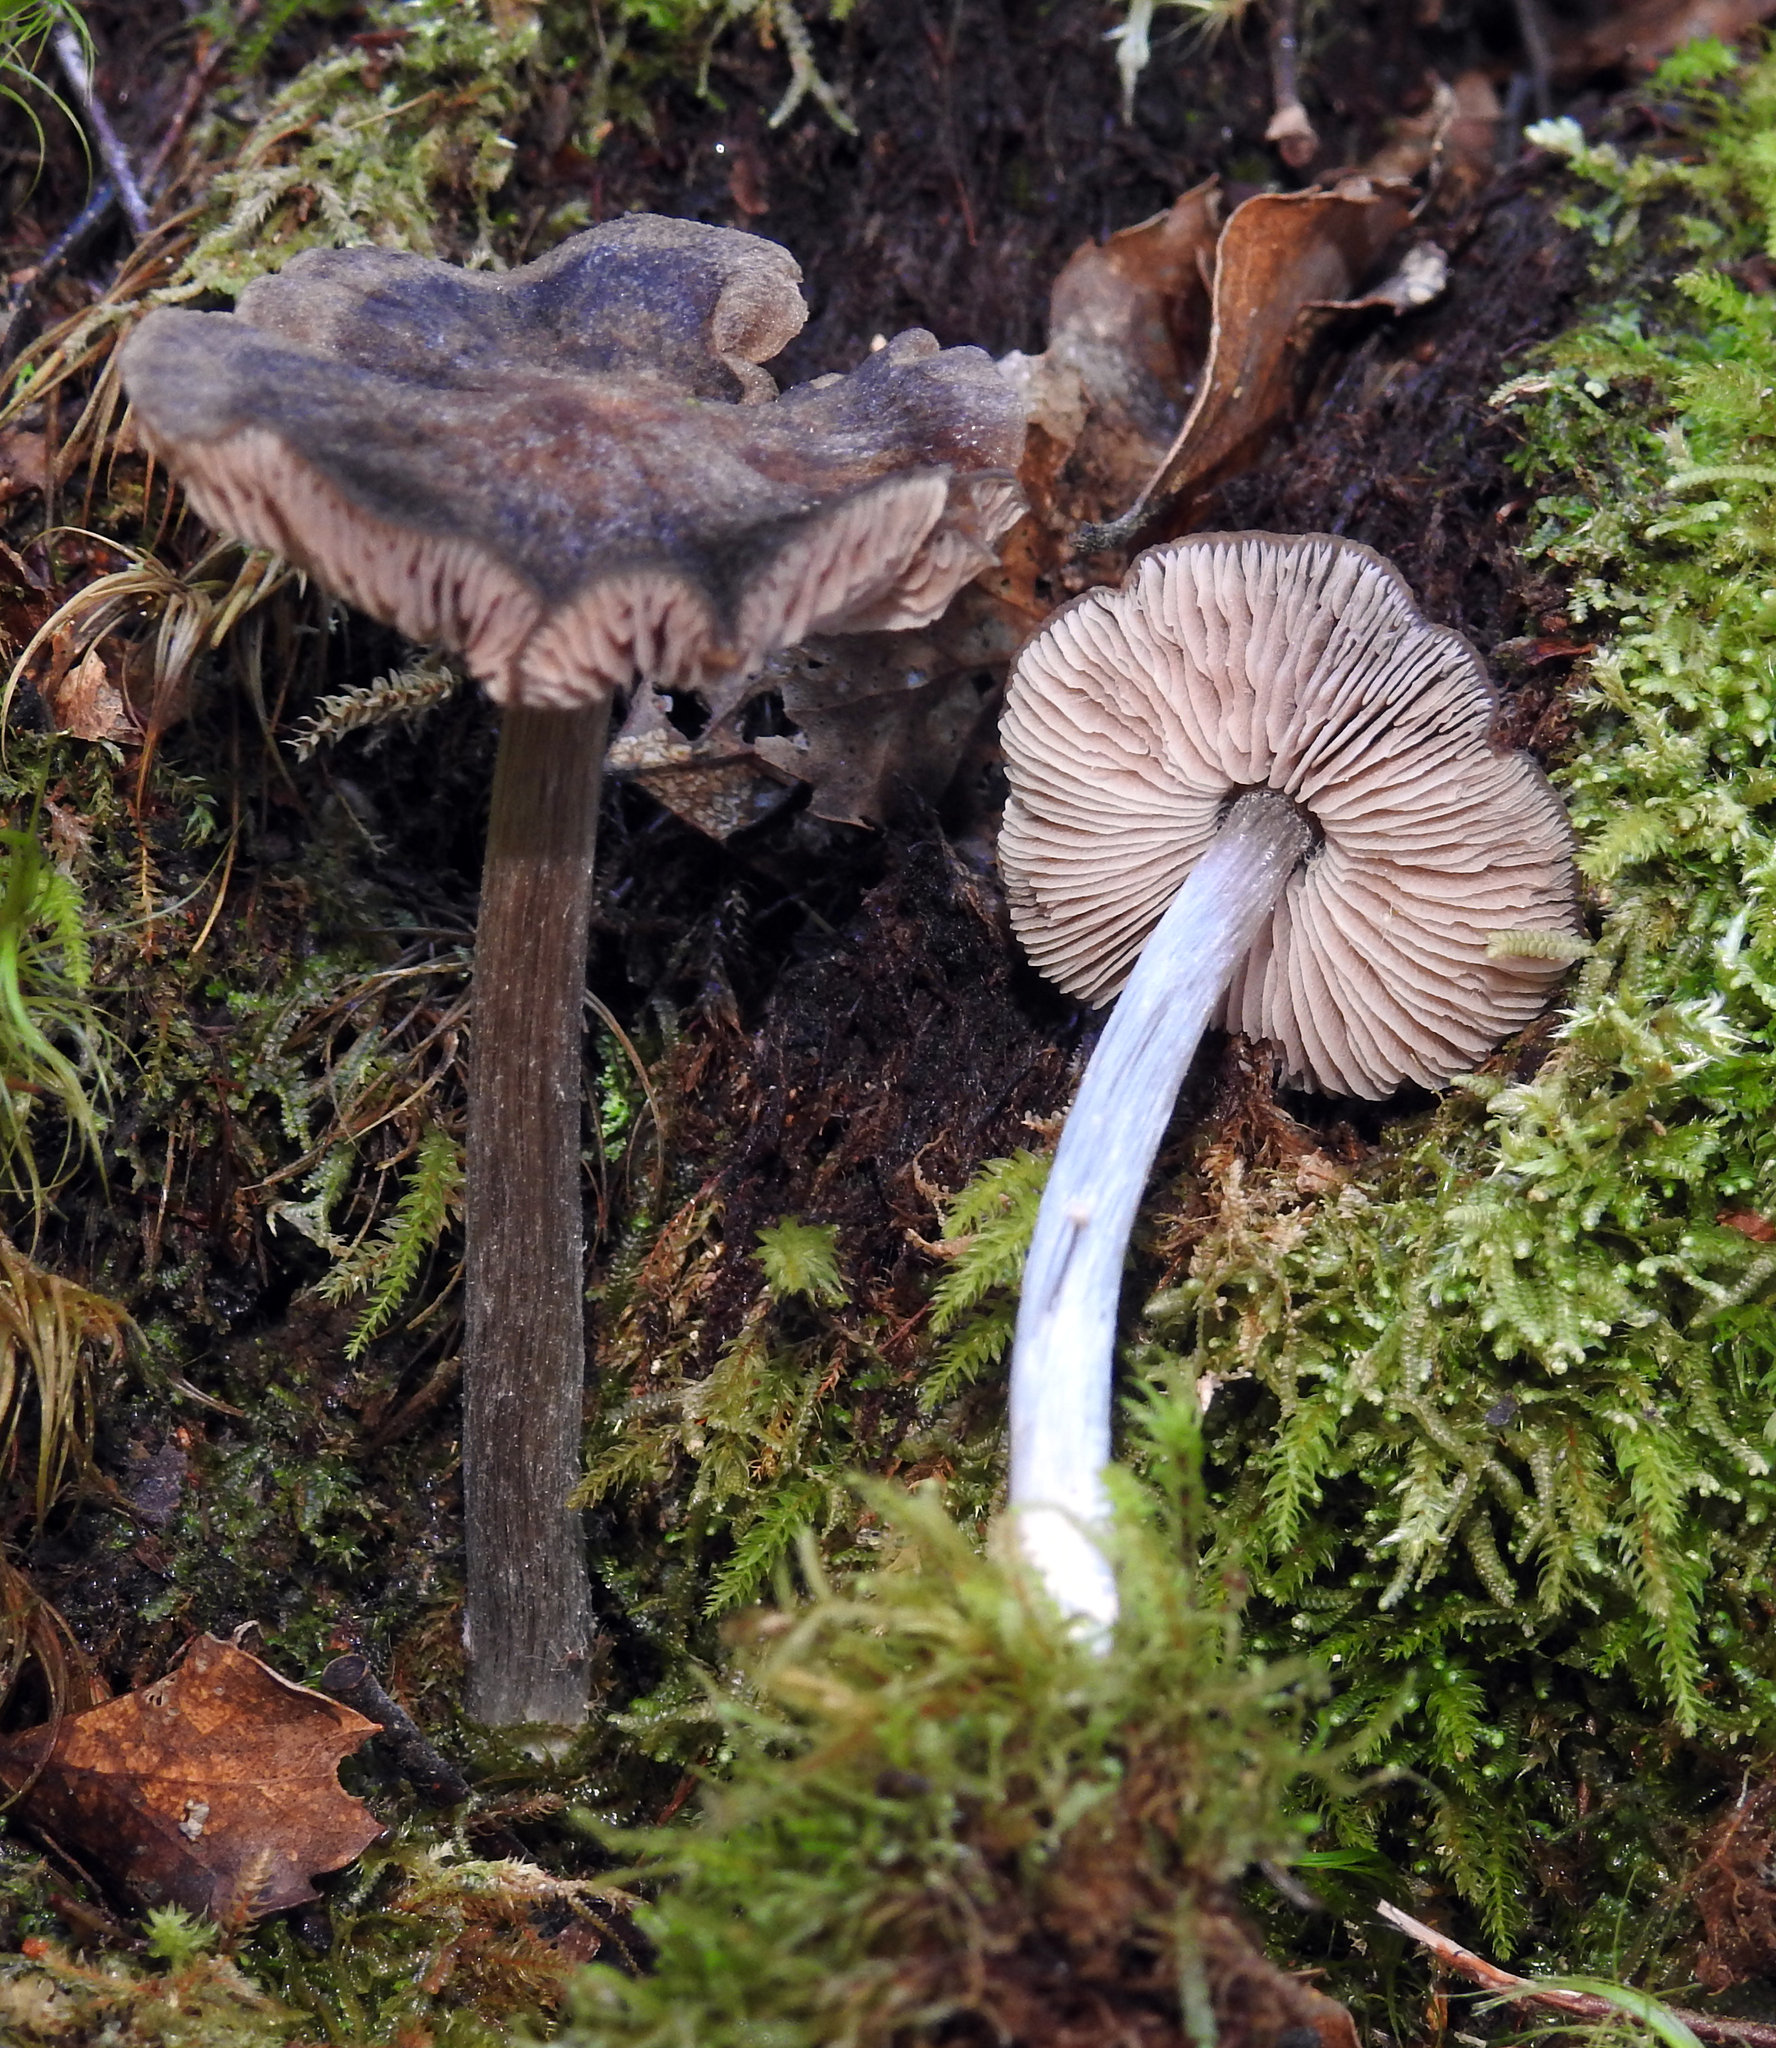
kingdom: Fungi
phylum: Basidiomycota
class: Agaricomycetes
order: Agaricales
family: Entolomataceae
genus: Entoloma
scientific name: Entoloma translucidum
